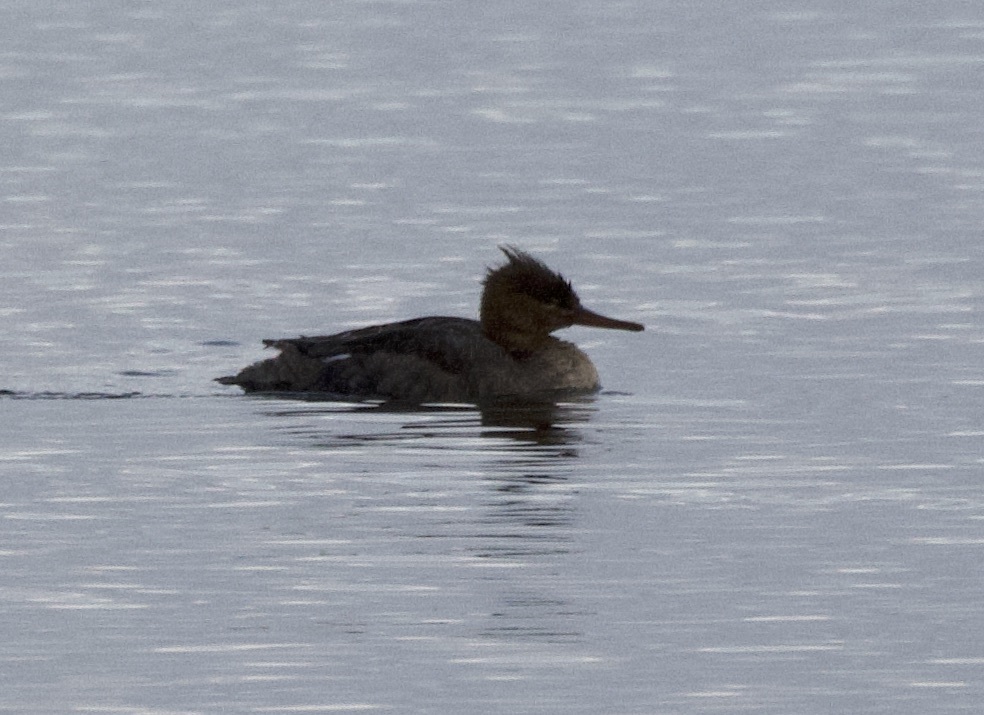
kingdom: Animalia
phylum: Chordata
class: Aves
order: Anseriformes
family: Anatidae
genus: Mergus
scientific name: Mergus serrator
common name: Red-breasted merganser
